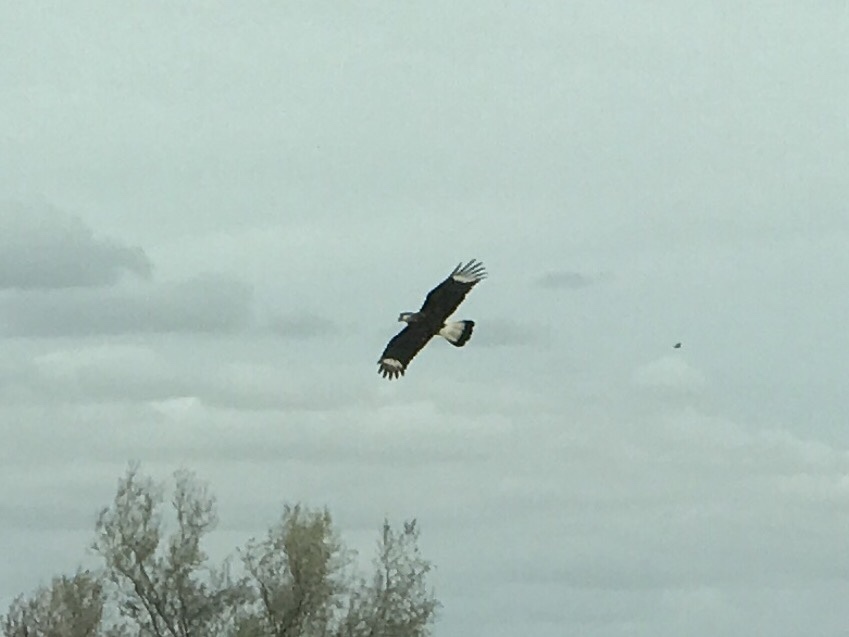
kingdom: Animalia
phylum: Chordata
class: Aves
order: Falconiformes
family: Falconidae
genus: Caracara
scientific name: Caracara plancus
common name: Southern caracara
